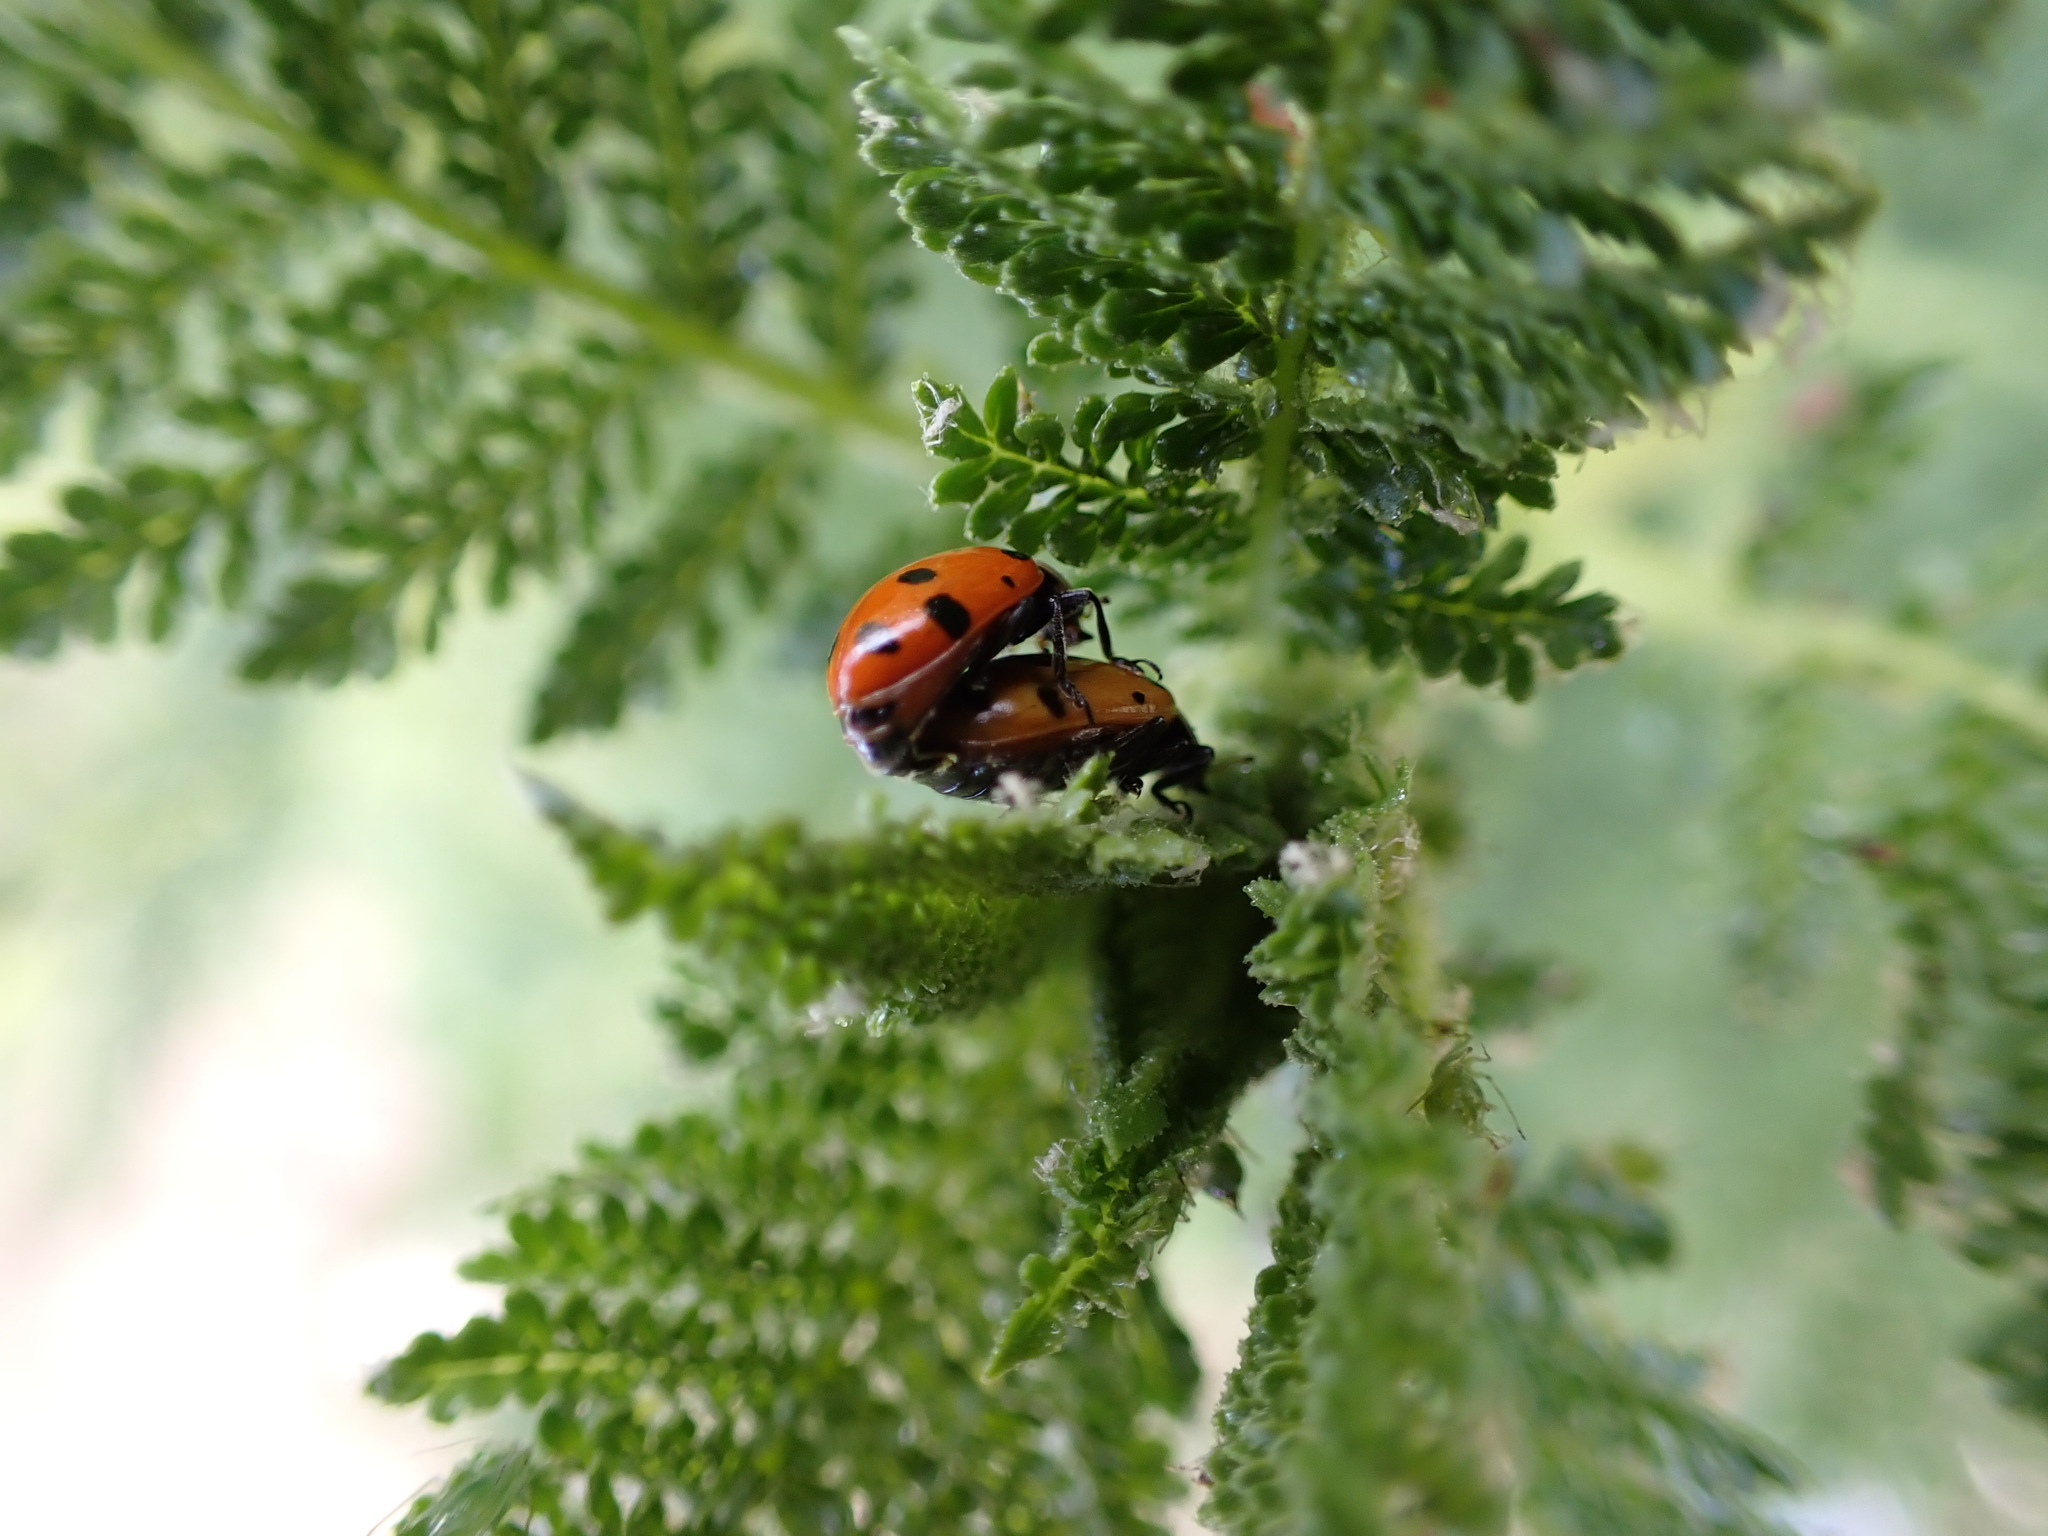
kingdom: Animalia
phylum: Arthropoda
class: Insecta
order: Coleoptera
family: Coccinellidae
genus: Hippodamia
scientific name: Hippodamia convergens
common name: Convergent lady beetle
